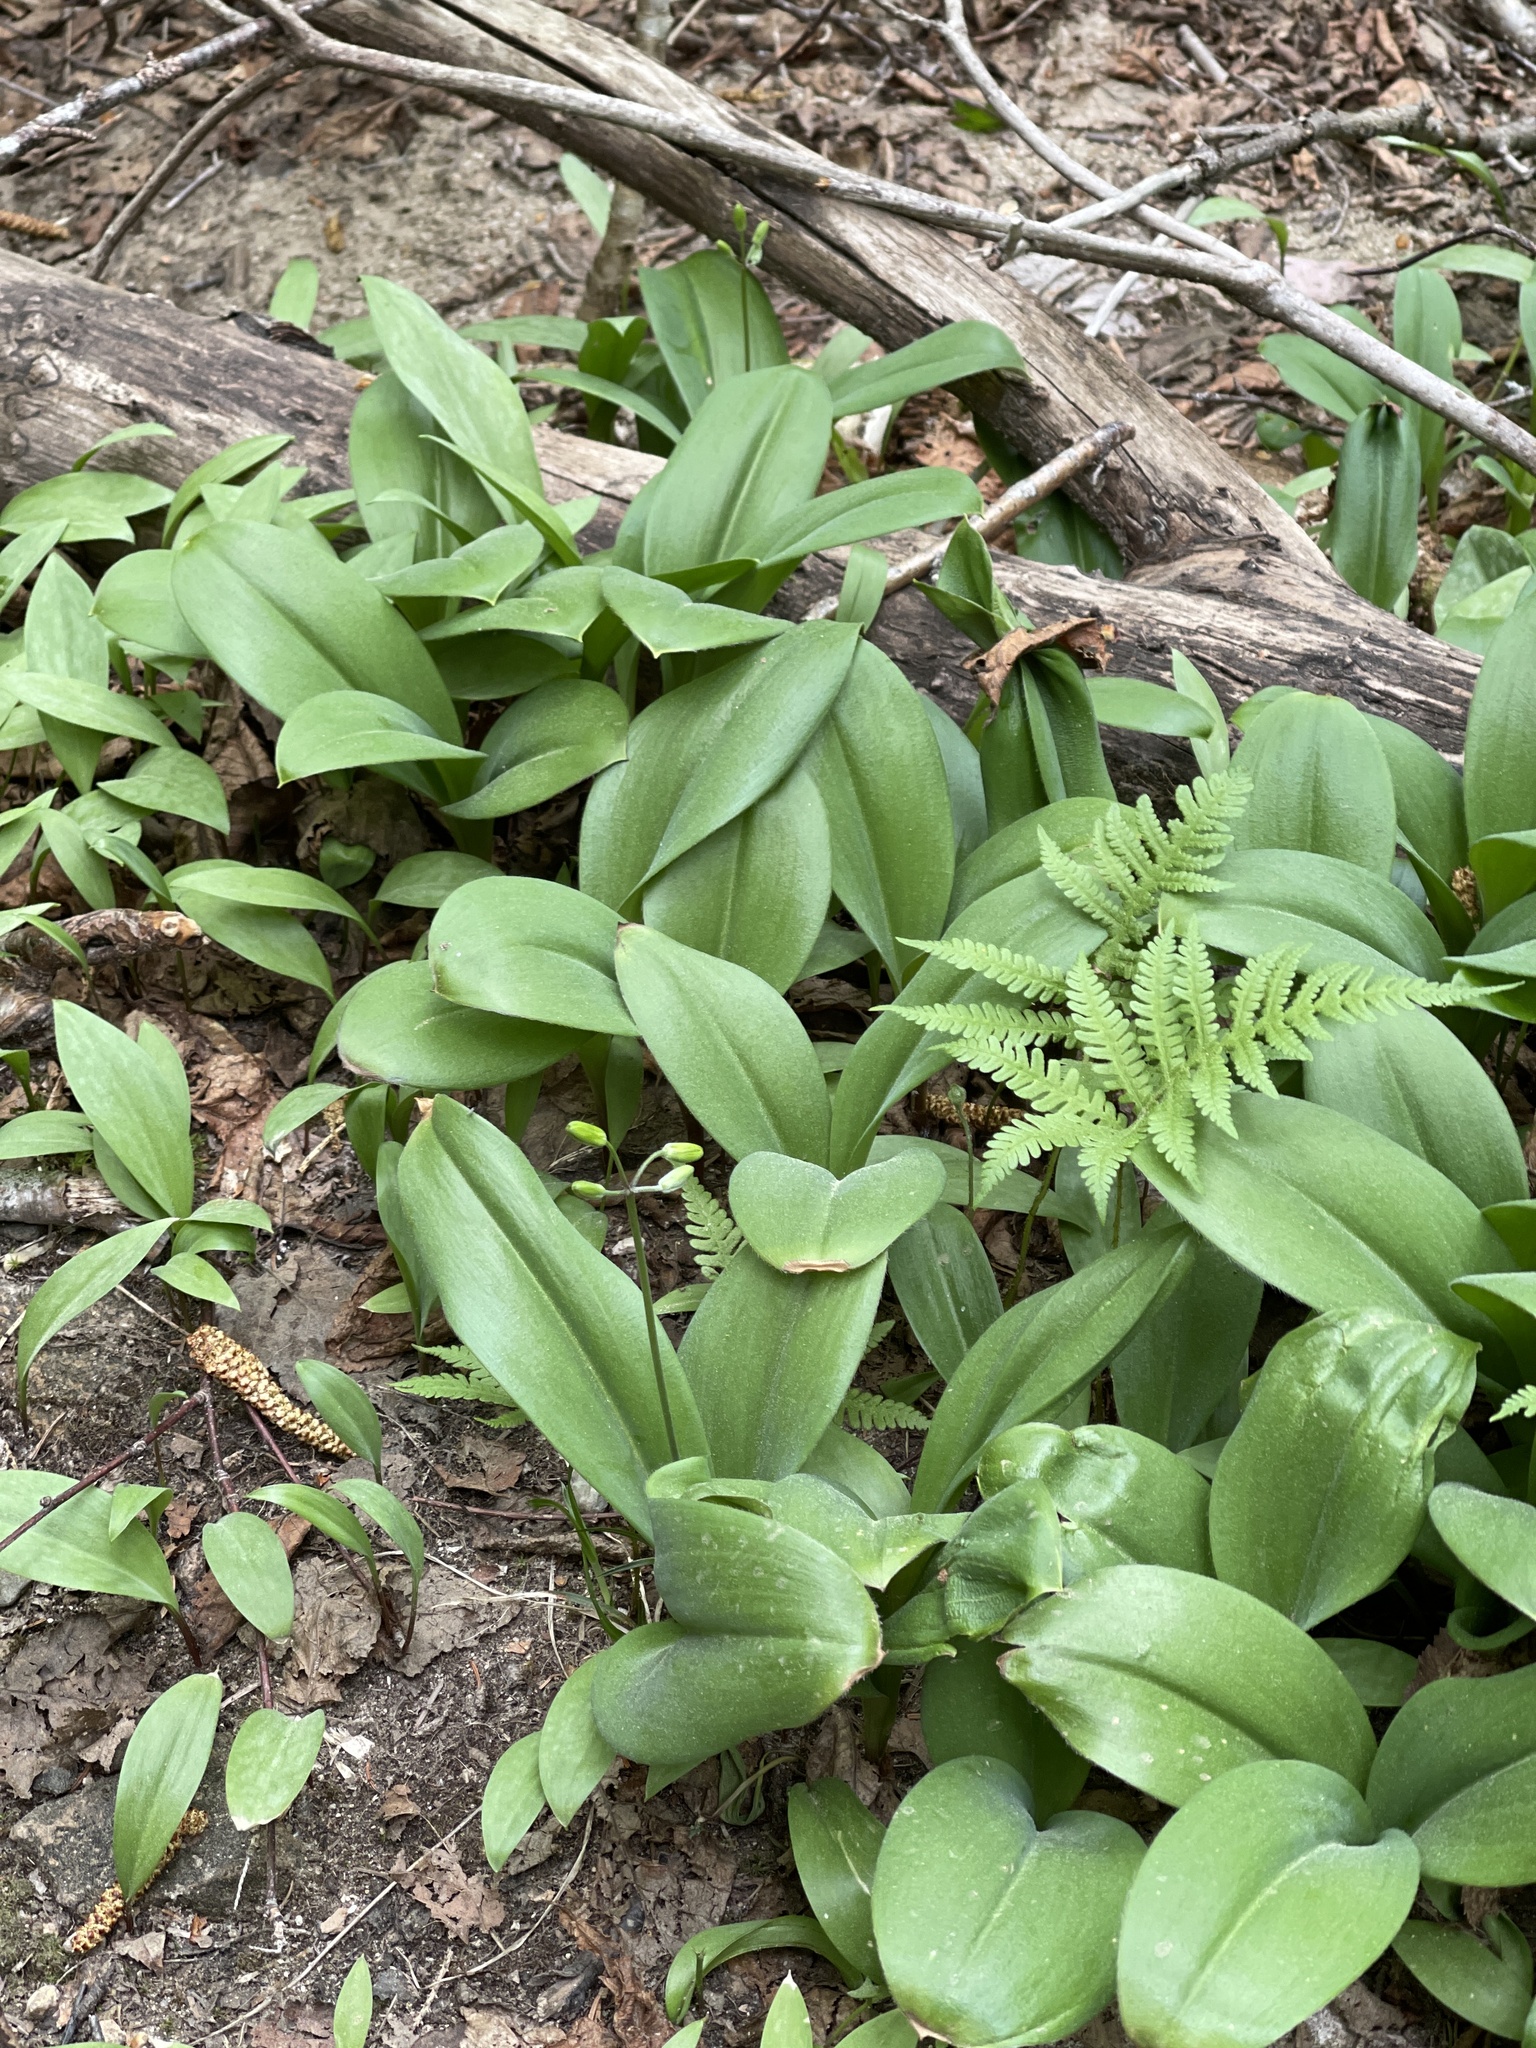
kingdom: Plantae
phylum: Tracheophyta
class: Liliopsida
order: Liliales
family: Liliaceae
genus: Clintonia
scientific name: Clintonia borealis
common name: Yellow clintonia
